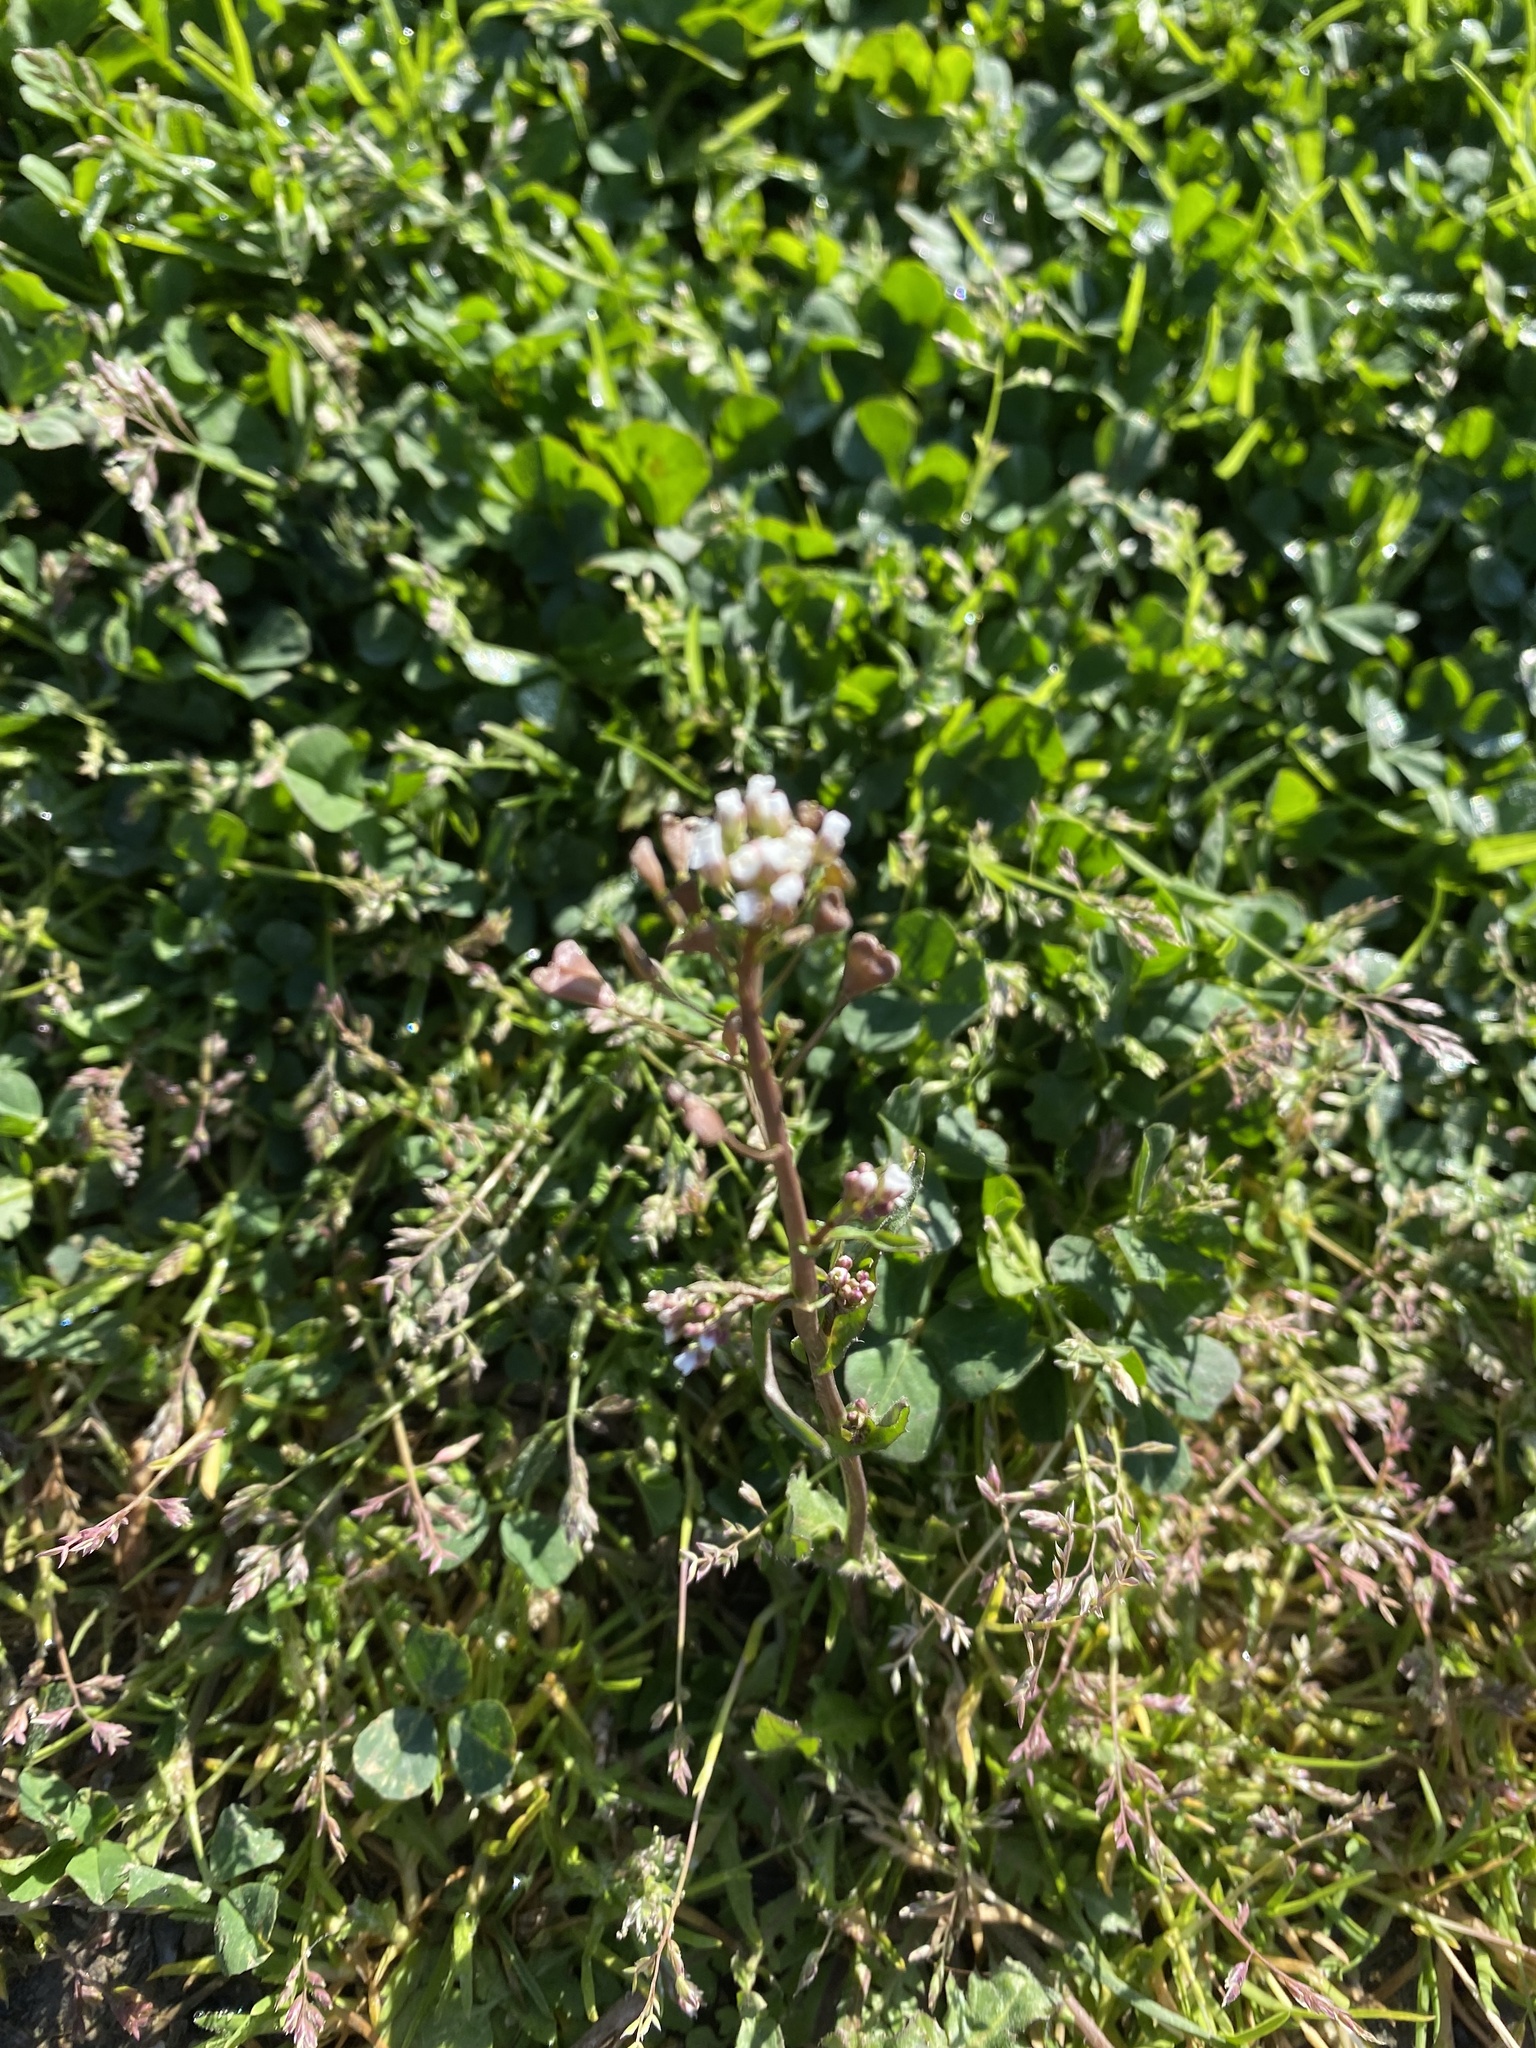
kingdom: Plantae
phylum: Tracheophyta
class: Magnoliopsida
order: Brassicales
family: Brassicaceae
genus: Capsella
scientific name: Capsella bursa-pastoris
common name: Shepherd's purse
